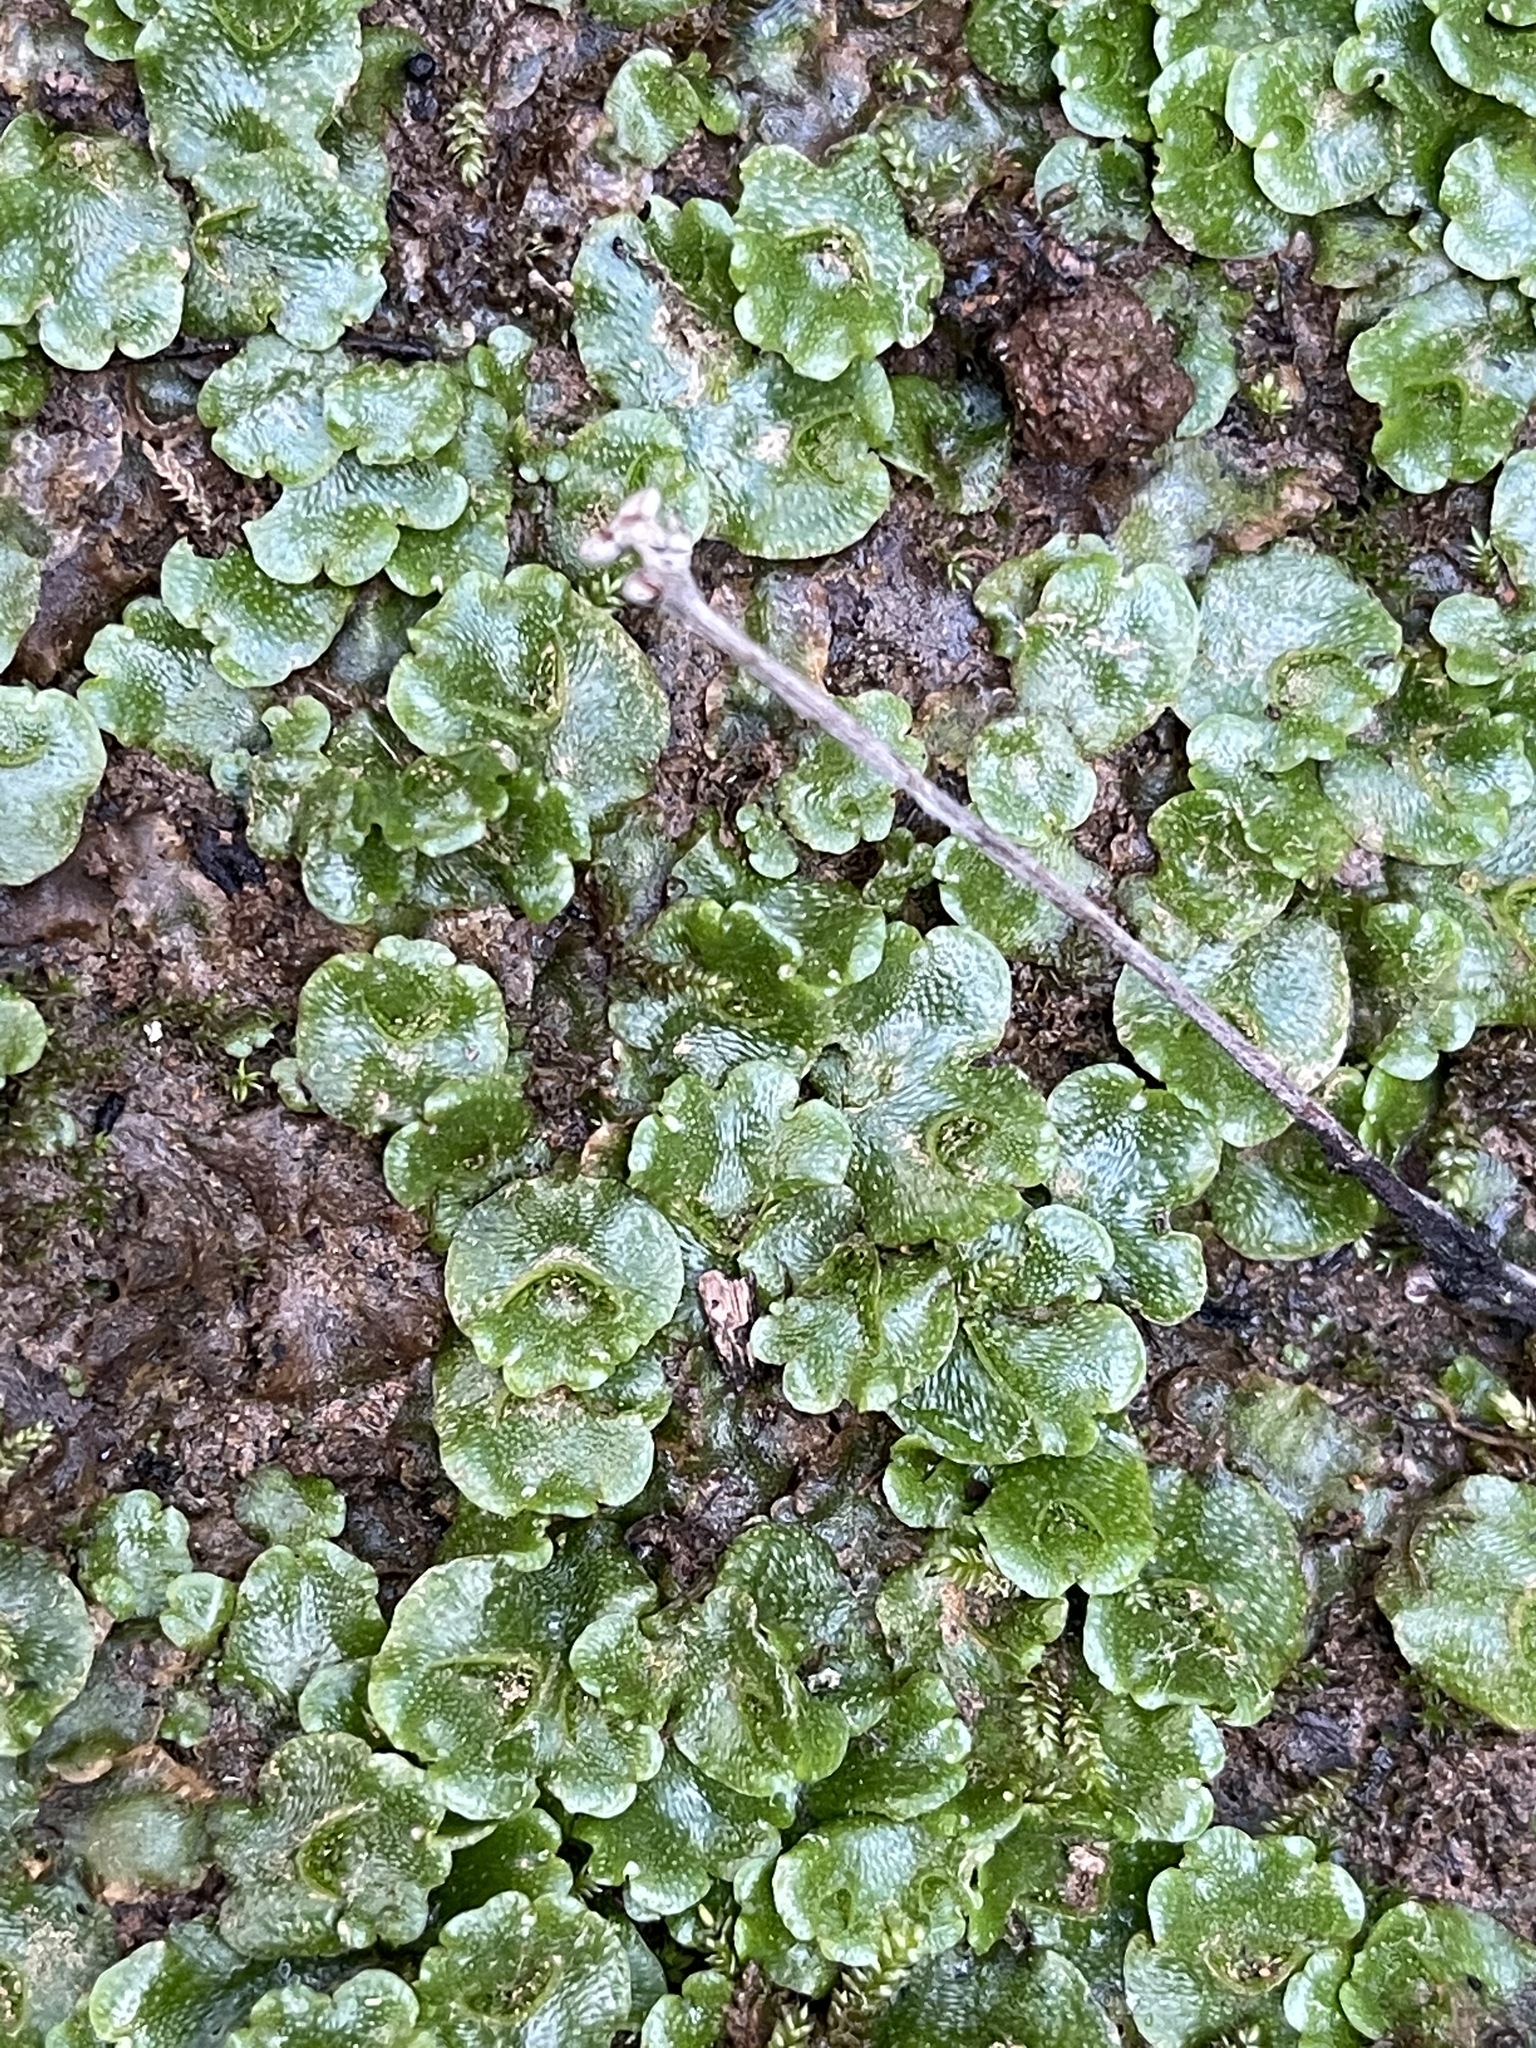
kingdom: Plantae
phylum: Marchantiophyta
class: Marchantiopsida
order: Lunulariales
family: Lunulariaceae
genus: Lunularia
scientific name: Lunularia cruciata
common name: Crescent-cup liverwort
